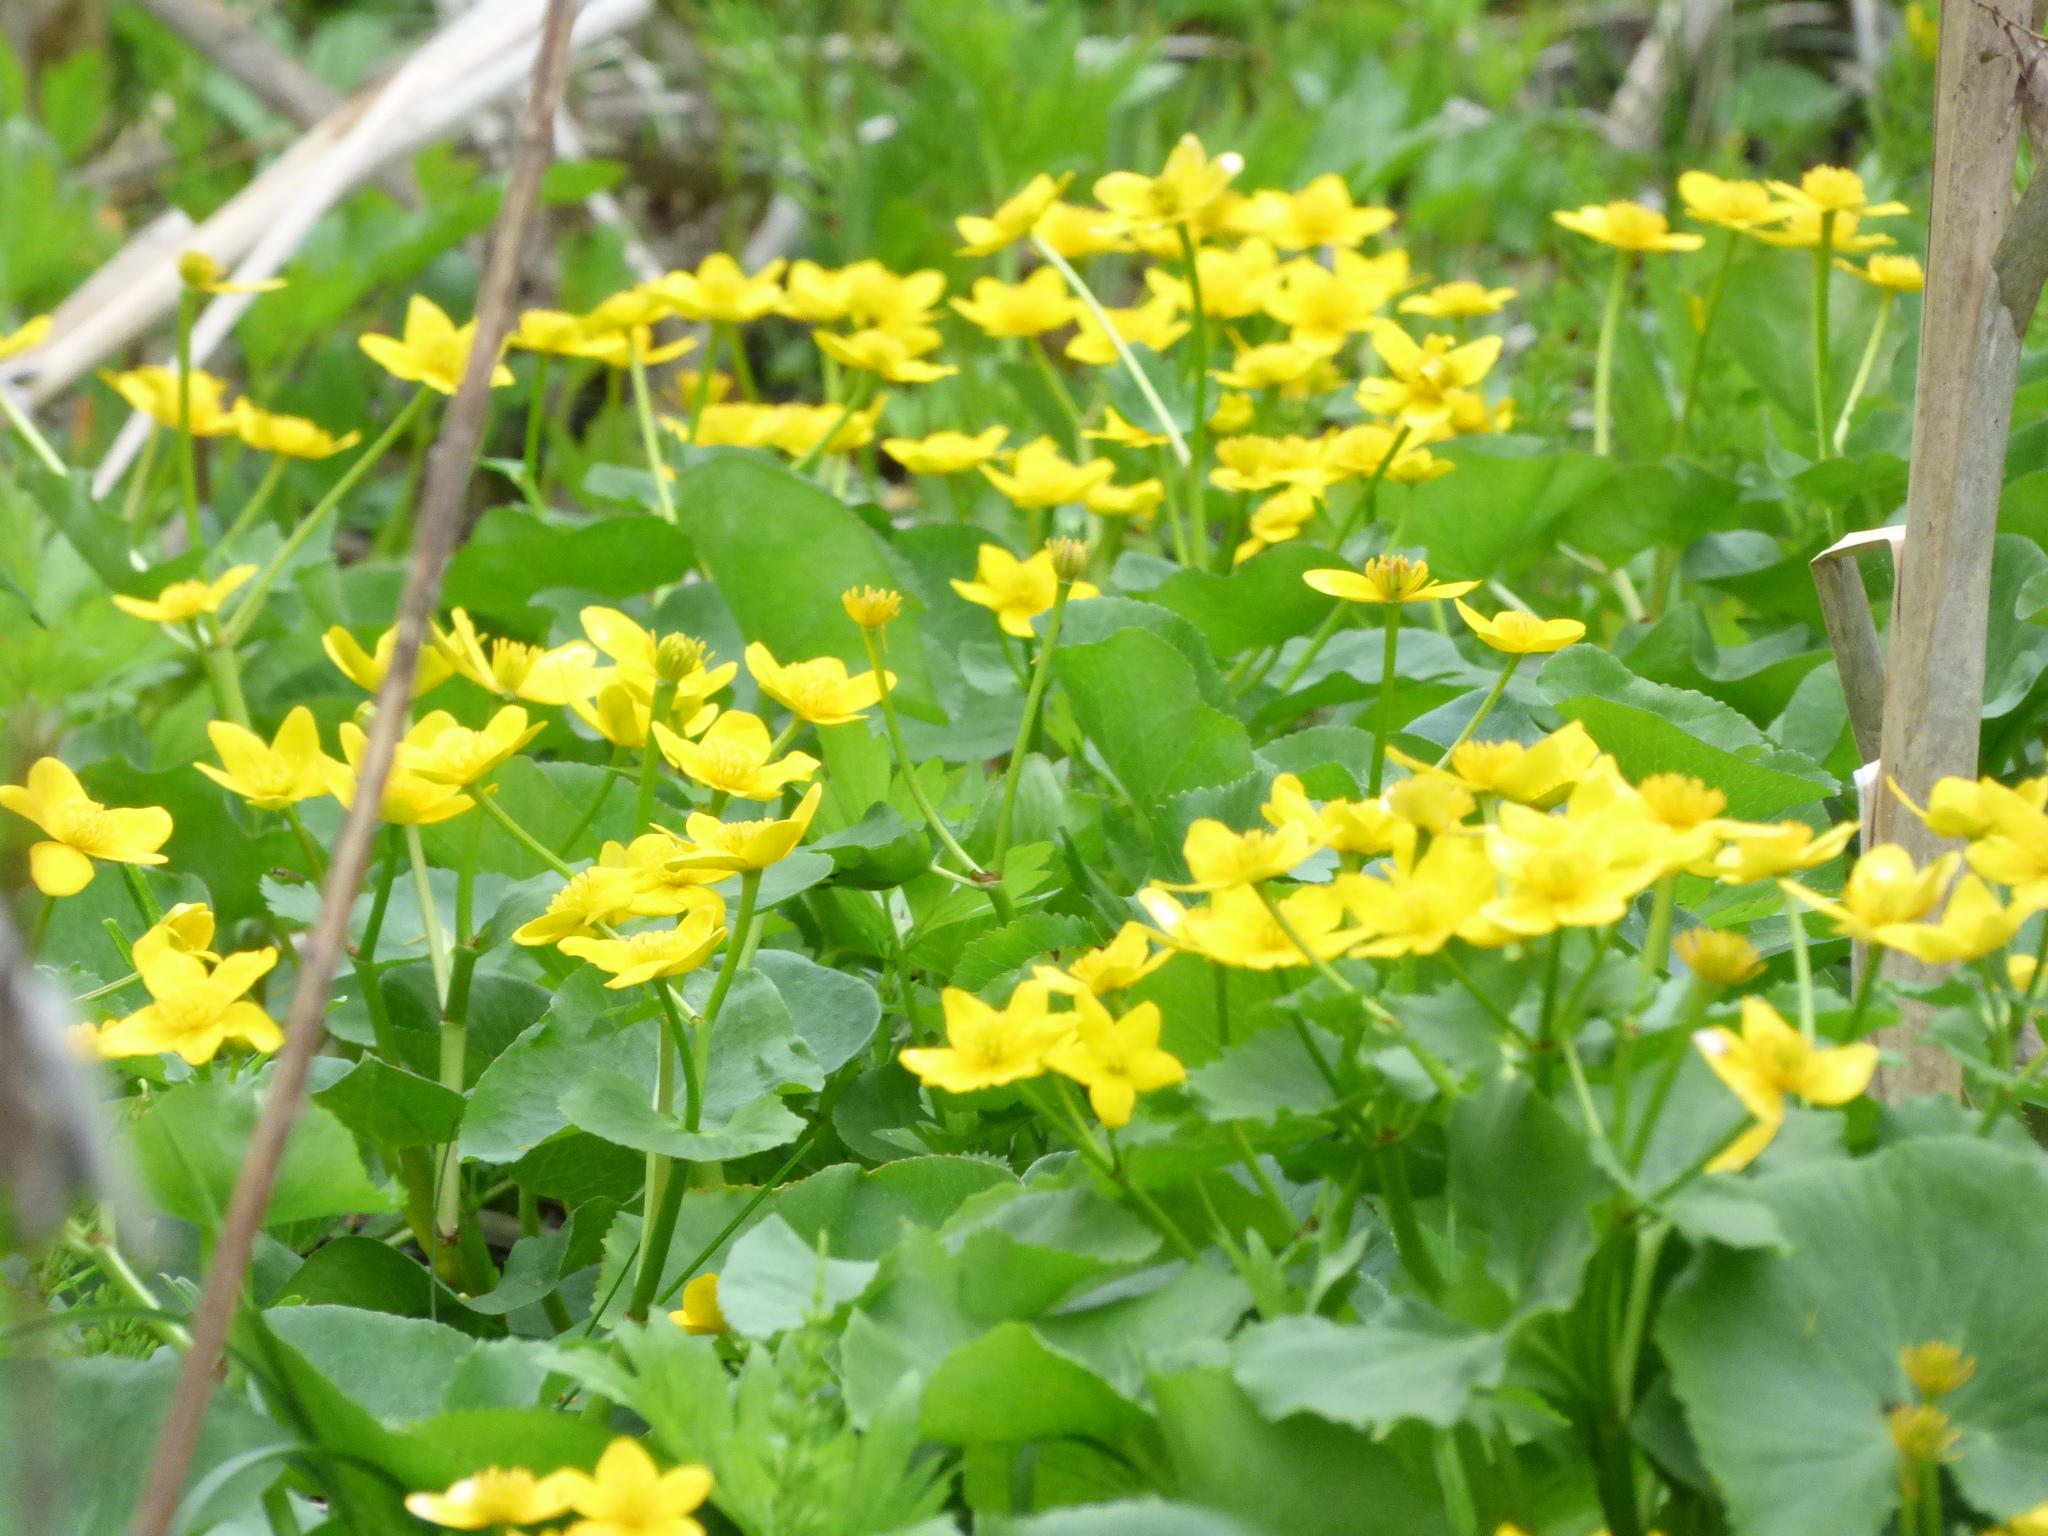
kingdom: Plantae
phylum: Tracheophyta
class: Magnoliopsida
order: Ranunculales
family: Ranunculaceae
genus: Caltha
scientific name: Caltha palustris
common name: Marsh marigold
